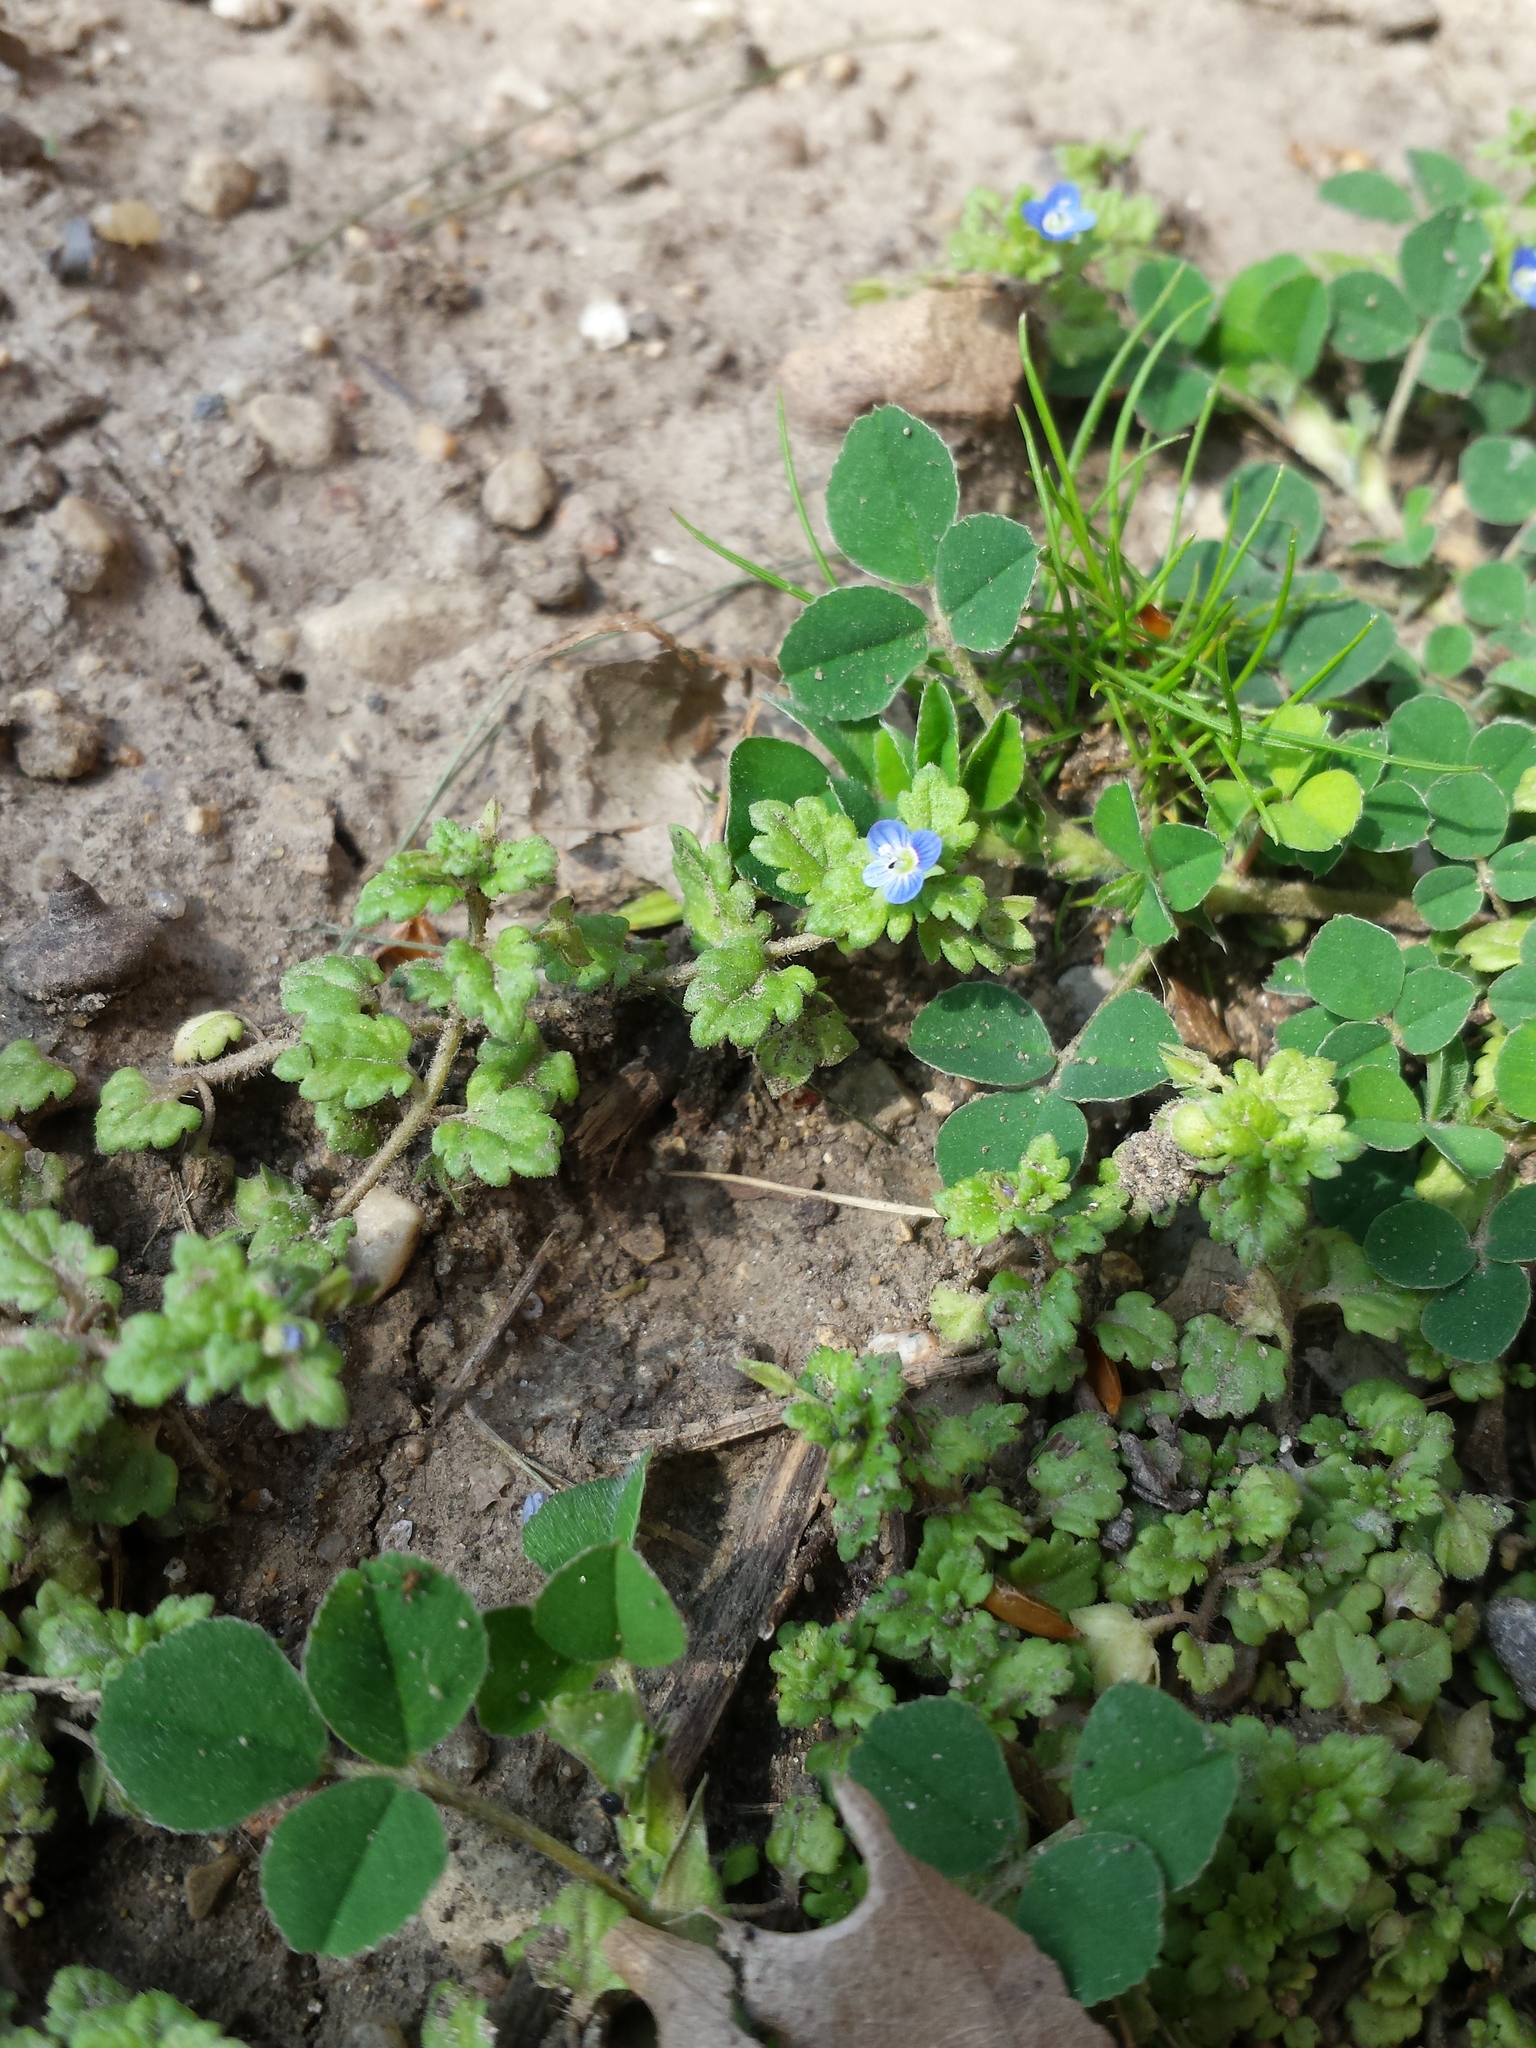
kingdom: Plantae
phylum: Tracheophyta
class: Magnoliopsida
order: Lamiales
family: Plantaginaceae
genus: Veronica
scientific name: Veronica polita
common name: Grey field-speedwell
